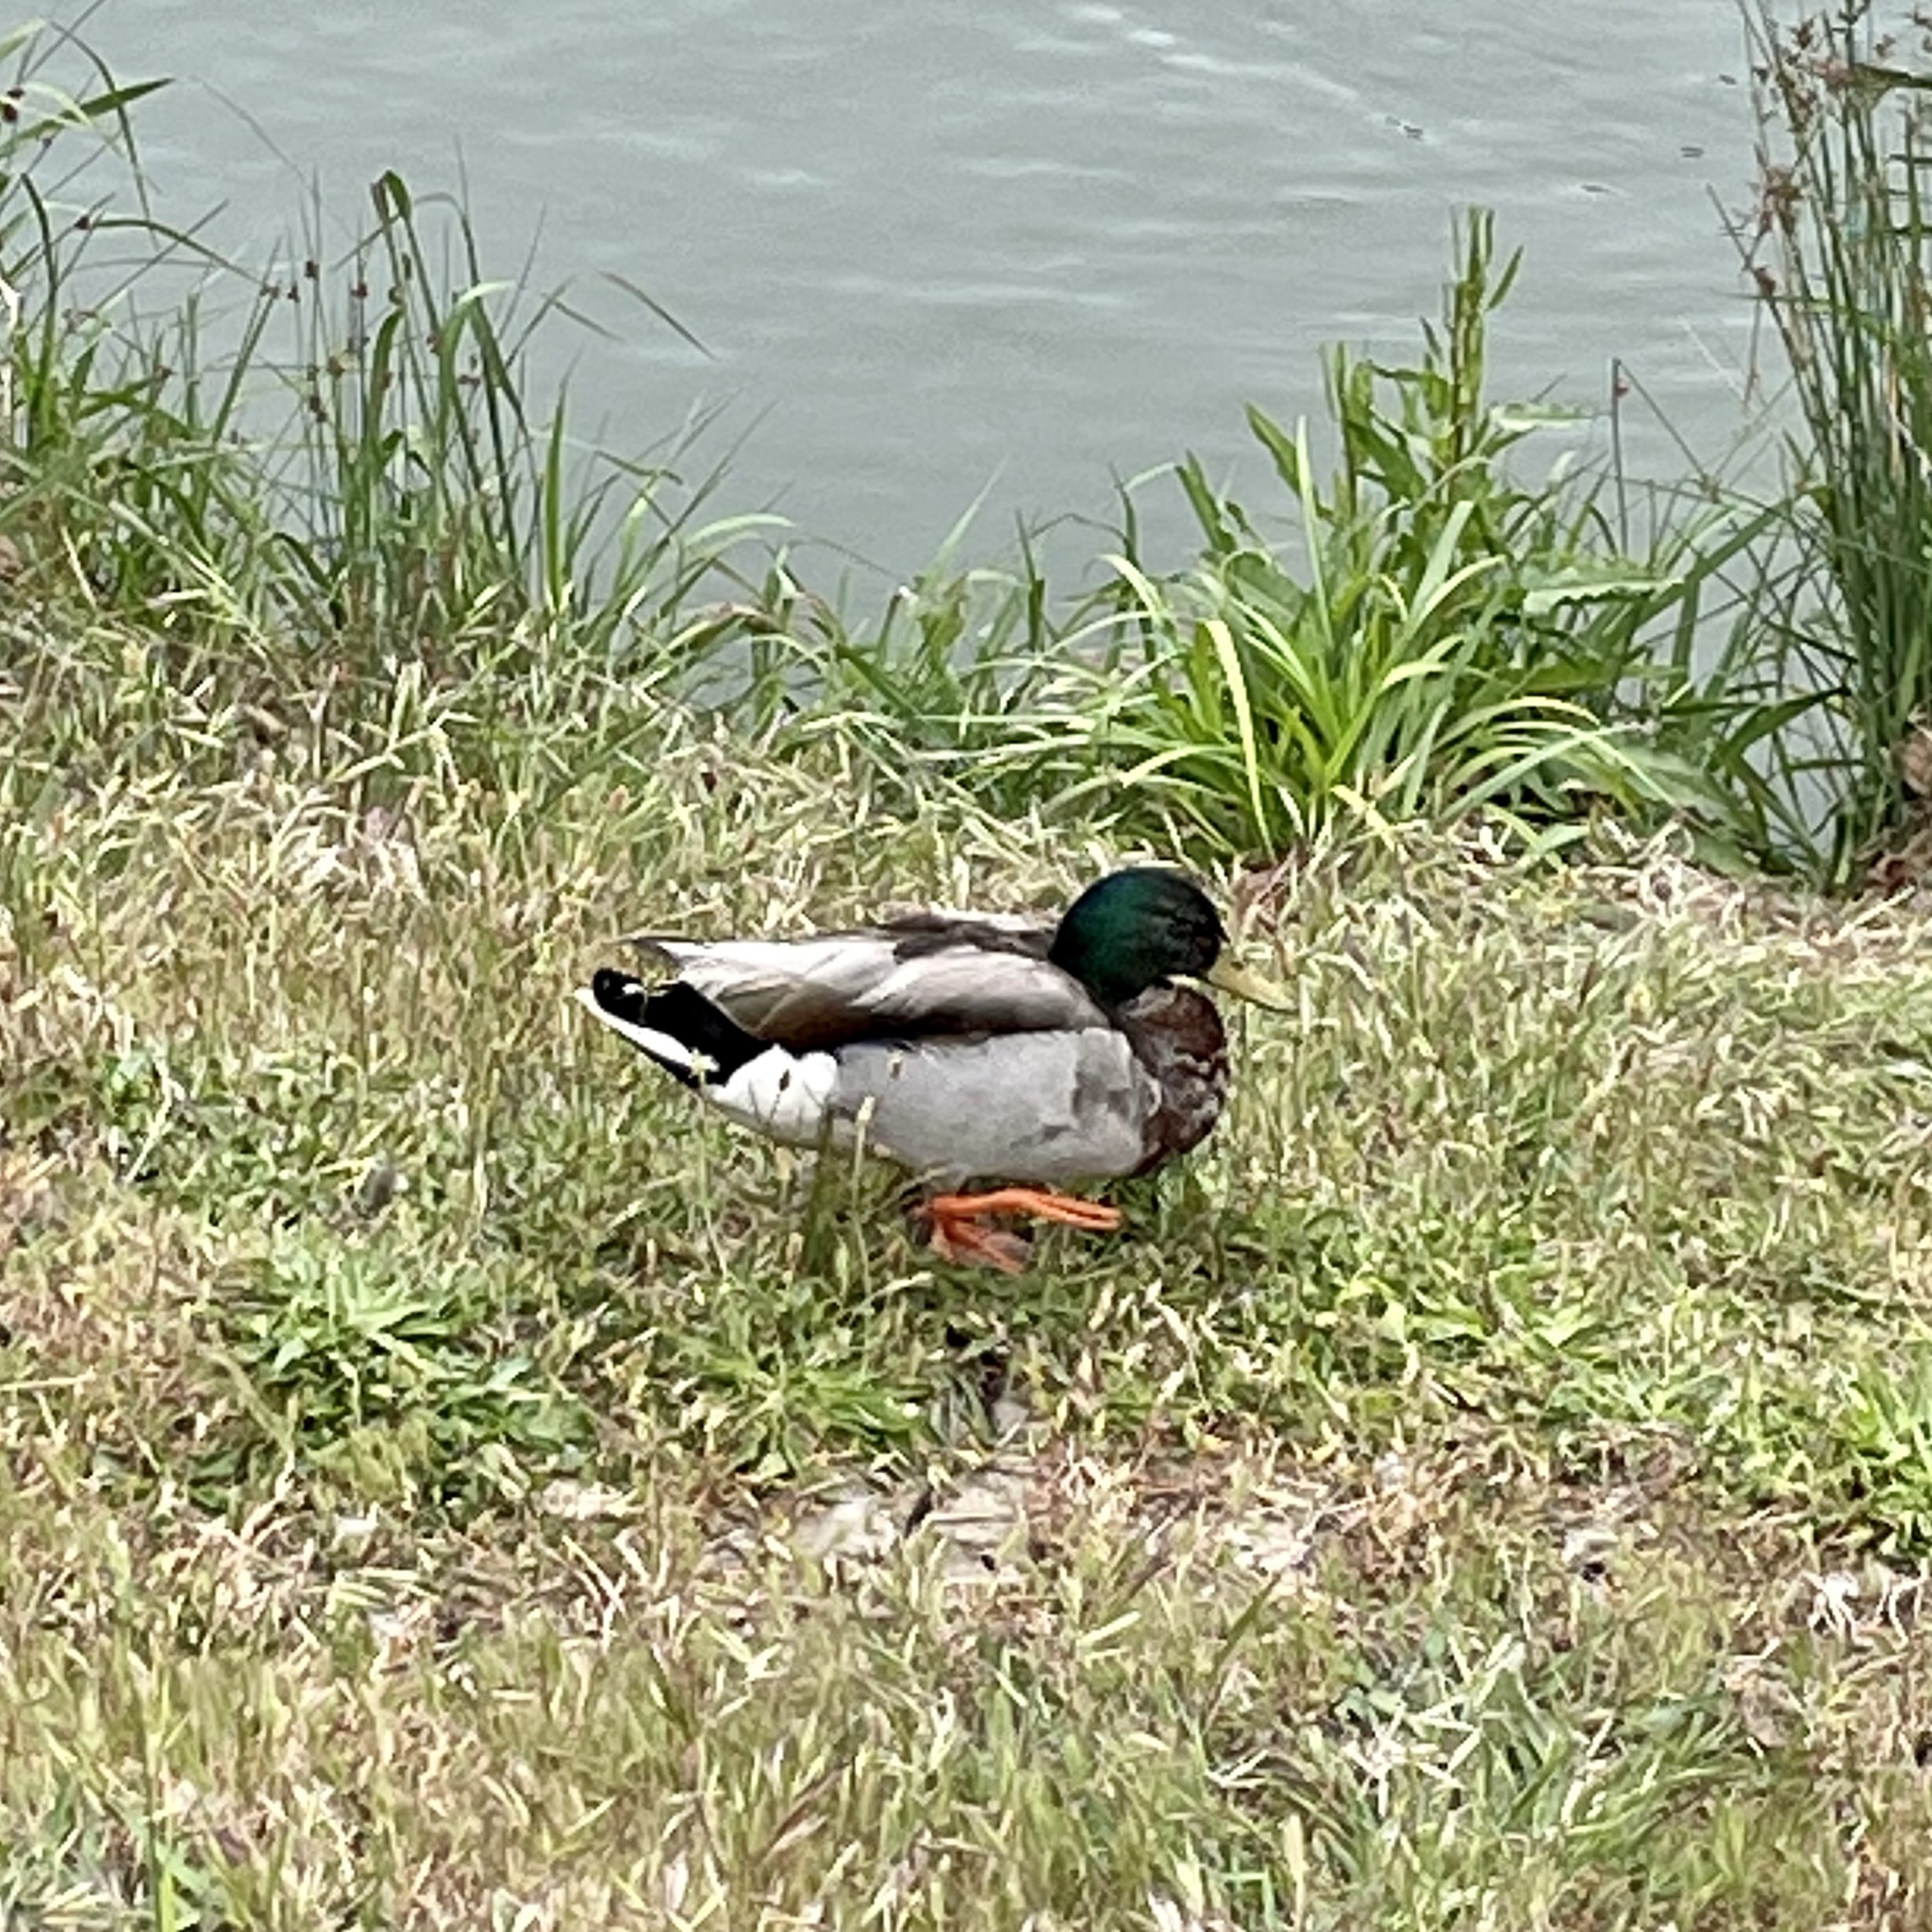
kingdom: Animalia
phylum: Chordata
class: Aves
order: Anseriformes
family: Anatidae
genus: Anas
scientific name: Anas platyrhynchos
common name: Mallard
